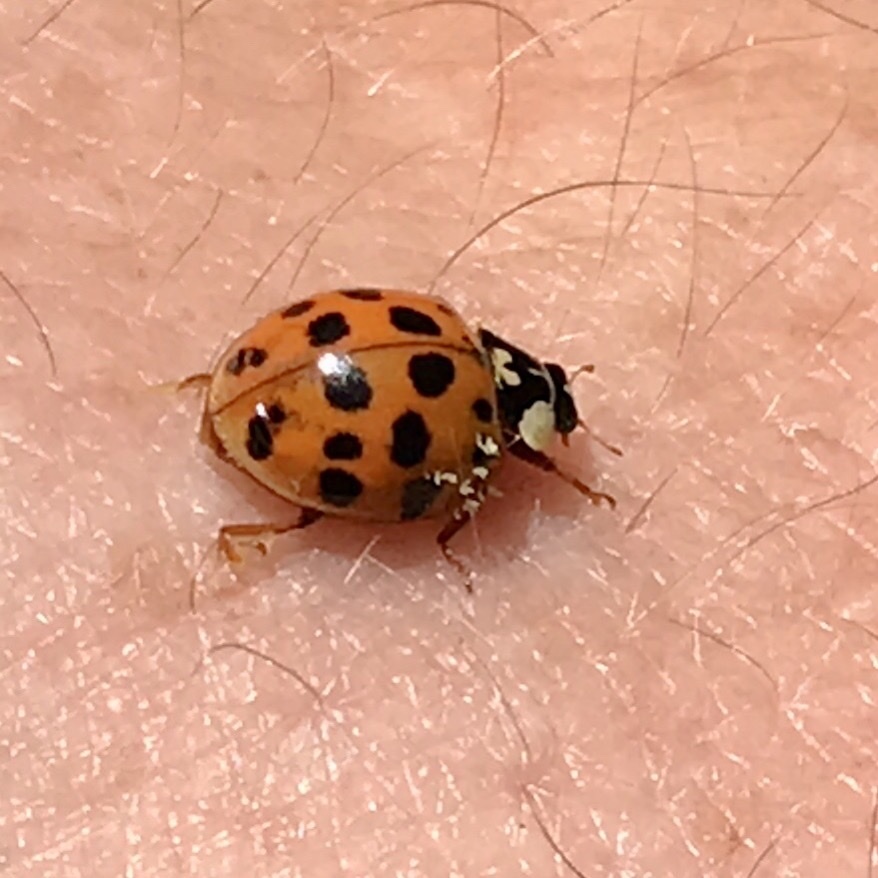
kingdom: Animalia
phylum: Arthropoda
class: Insecta
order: Coleoptera
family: Coccinellidae
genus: Harmonia
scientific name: Harmonia axyridis
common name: Harlequin ladybird
